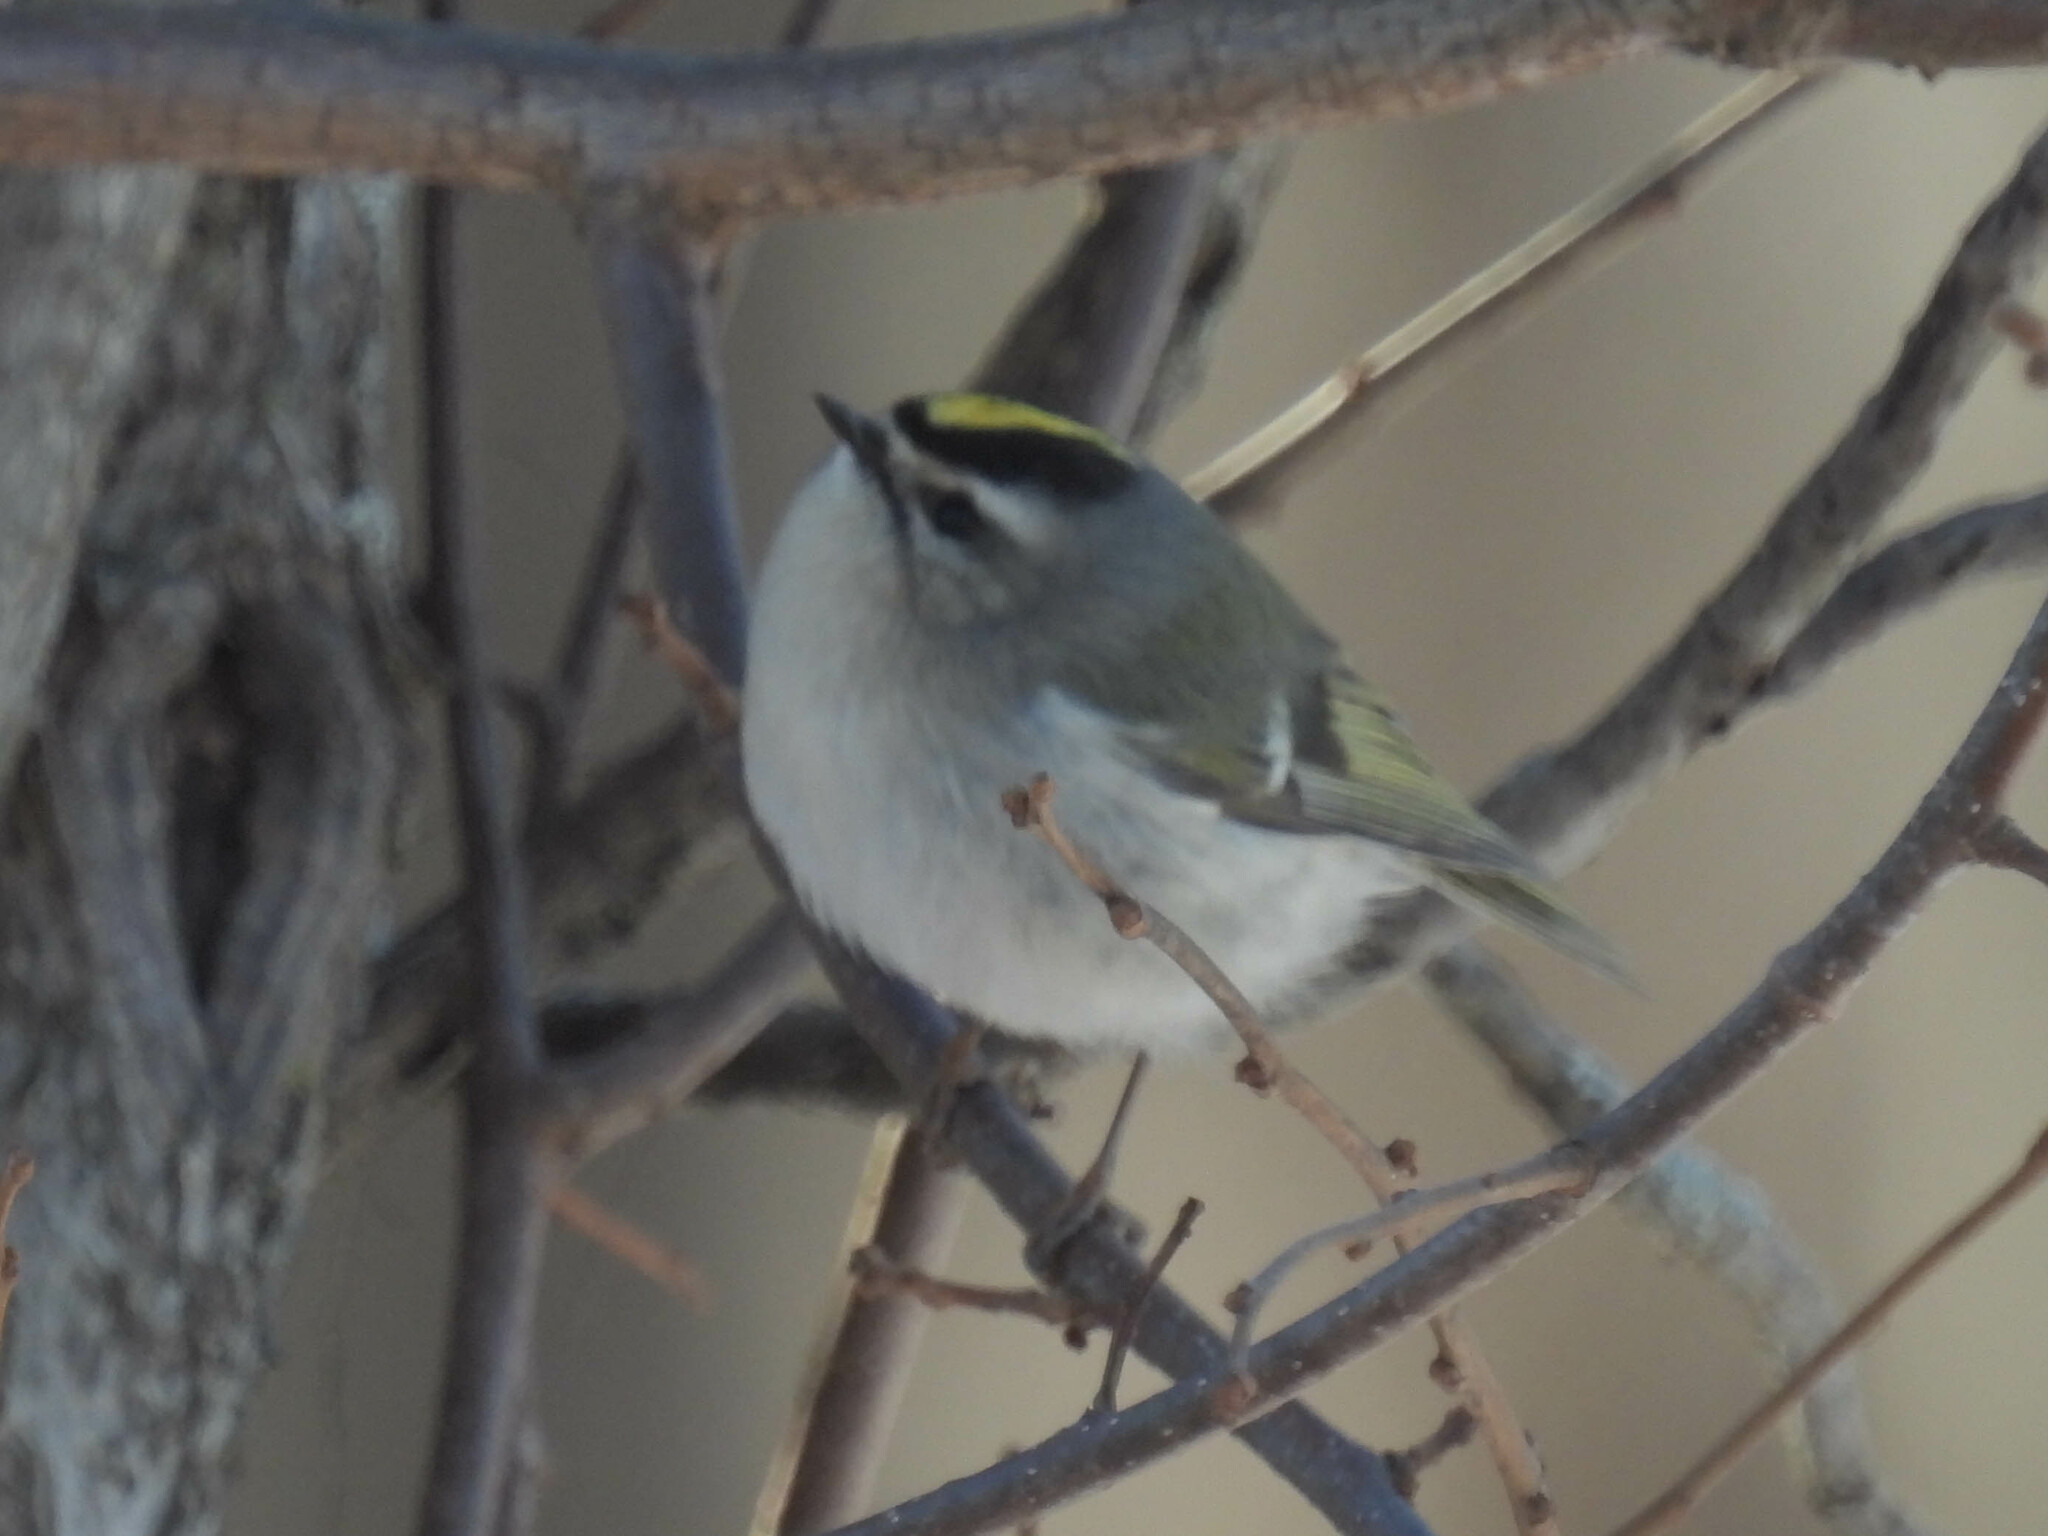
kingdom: Animalia
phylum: Chordata
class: Aves
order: Passeriformes
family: Regulidae
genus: Regulus
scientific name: Regulus satrapa
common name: Golden-crowned kinglet
